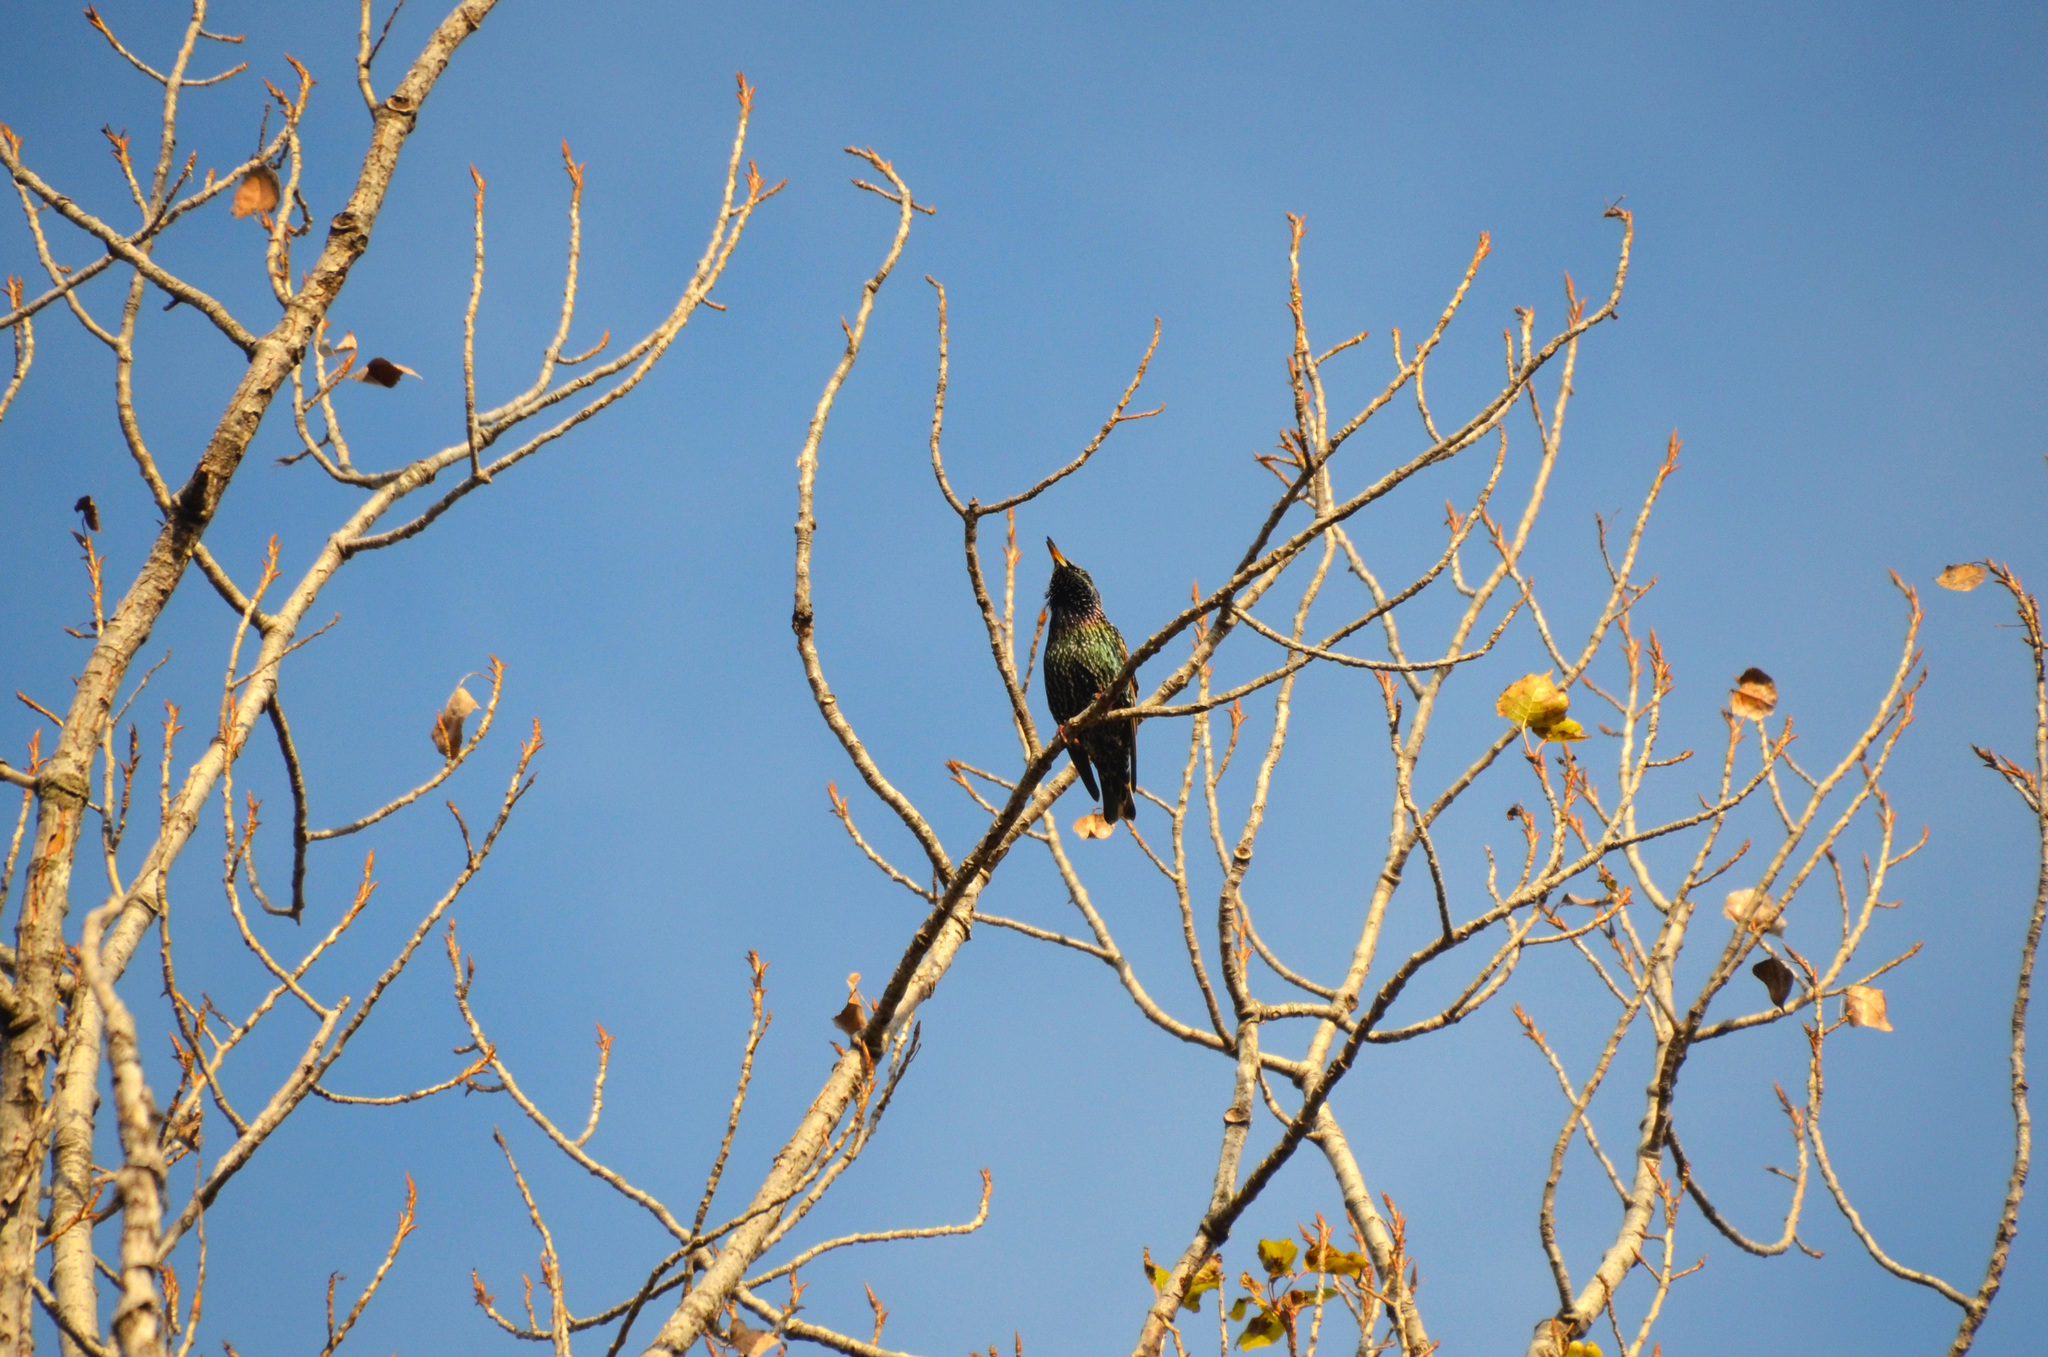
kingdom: Animalia
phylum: Chordata
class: Aves
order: Passeriformes
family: Sturnidae
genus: Sturnus
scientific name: Sturnus vulgaris
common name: Common starling
